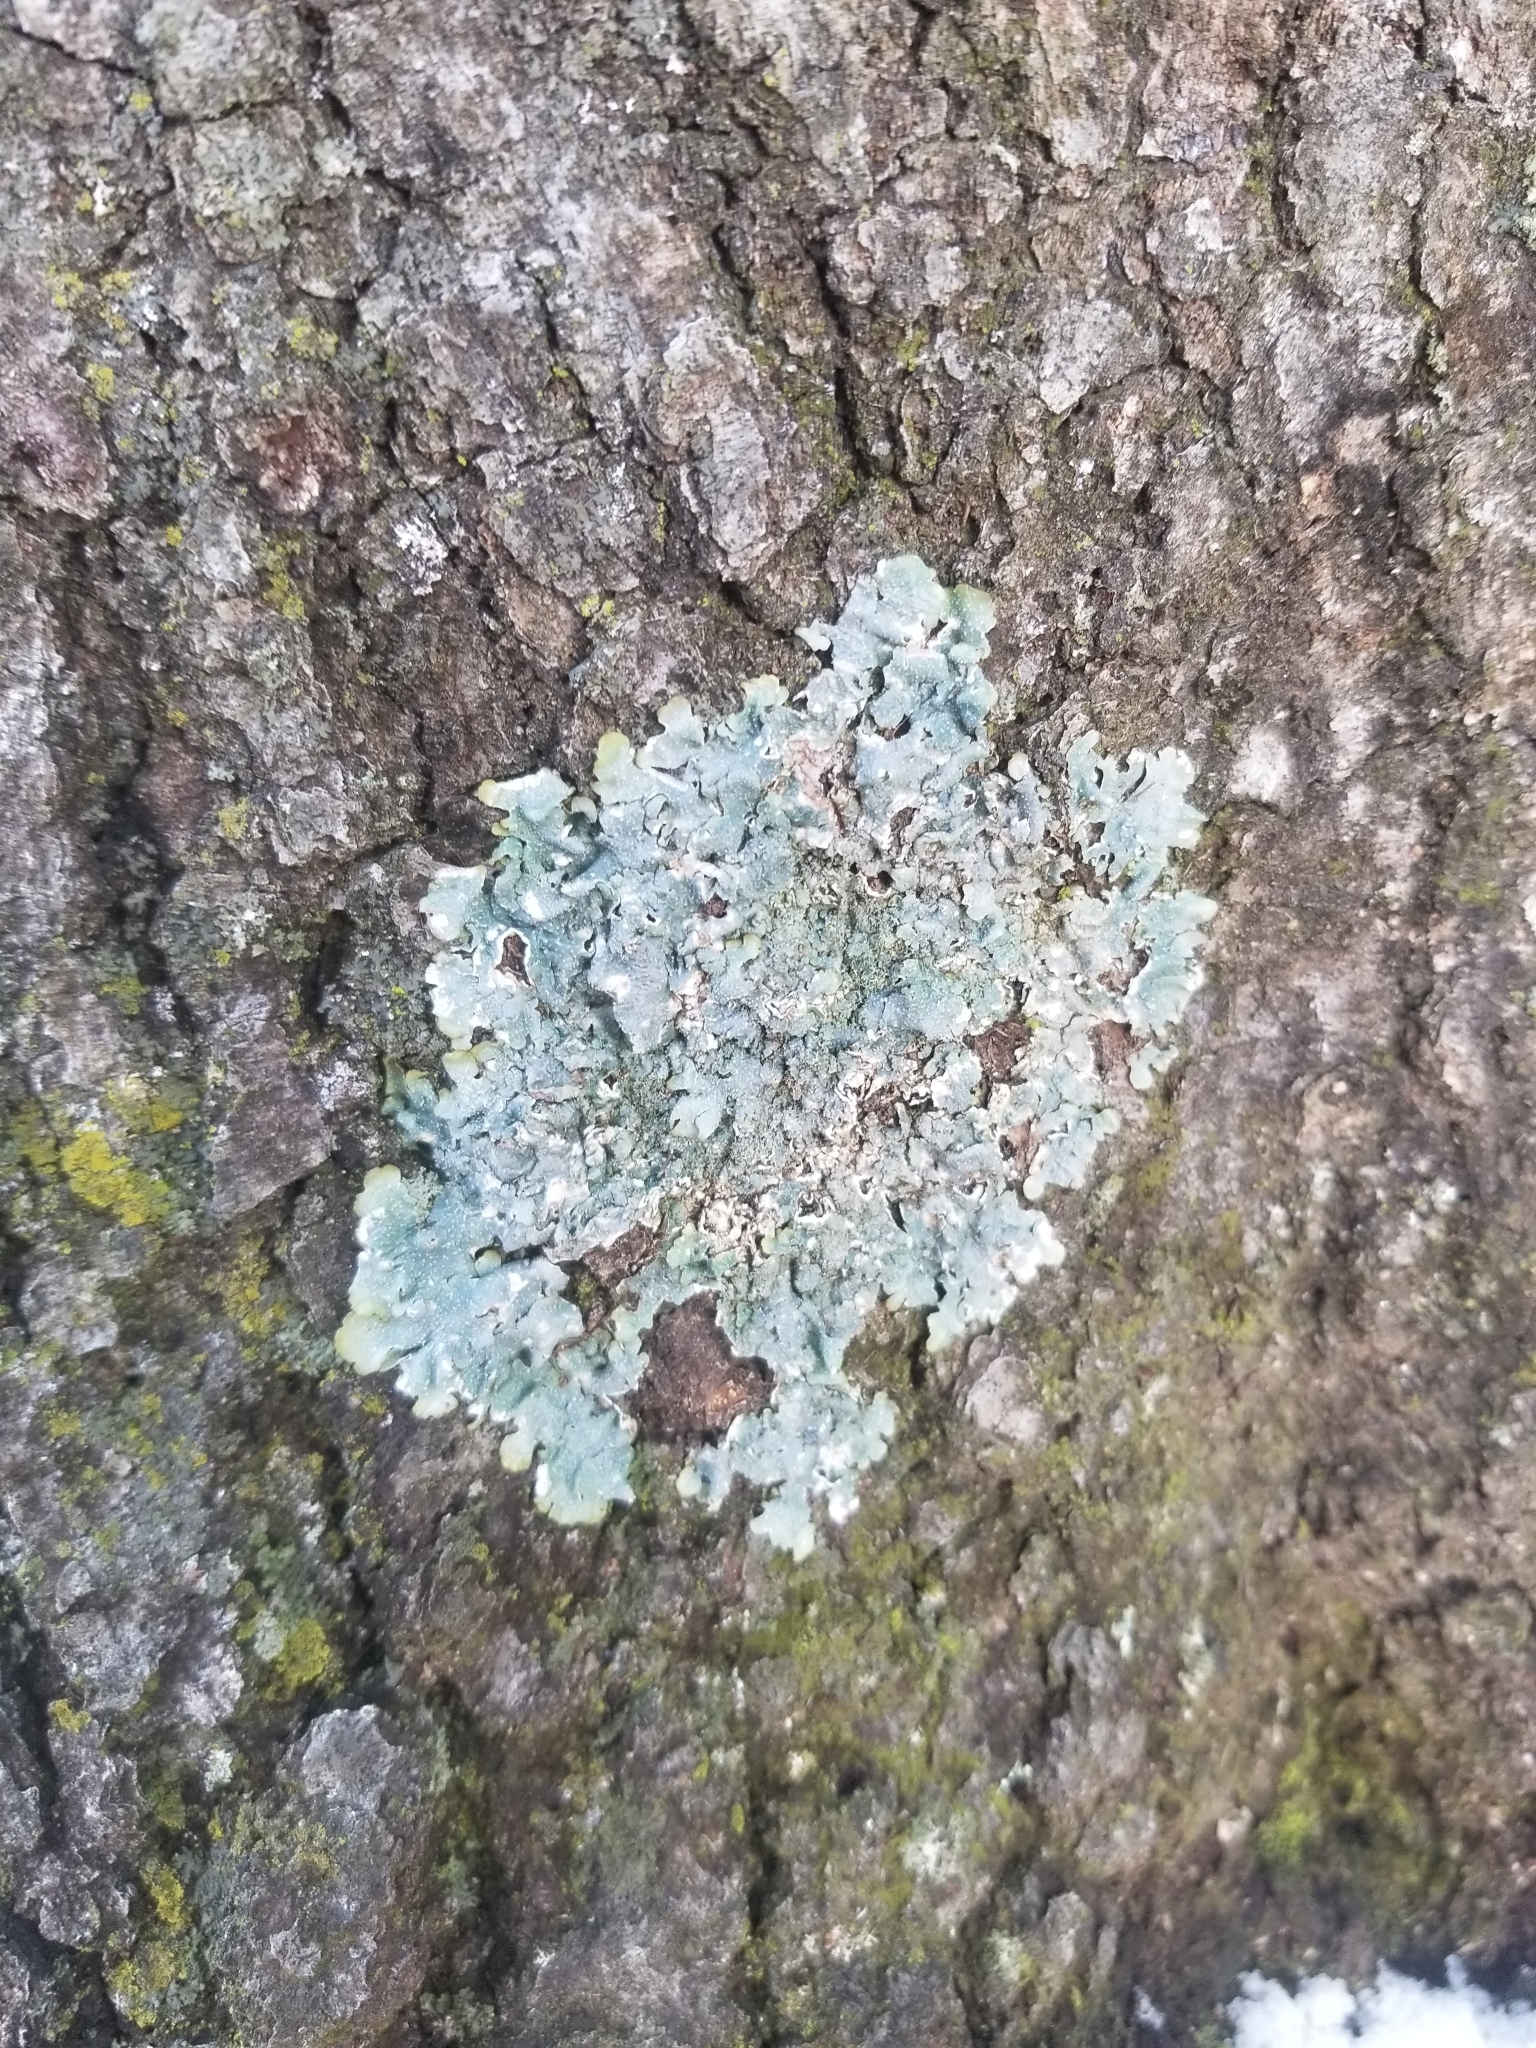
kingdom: Fungi
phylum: Ascomycota
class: Lecanoromycetes
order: Lecanorales
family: Parmeliaceae
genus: Flavoparmelia
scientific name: Flavoparmelia caperata
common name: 40-mile per hour lichen
